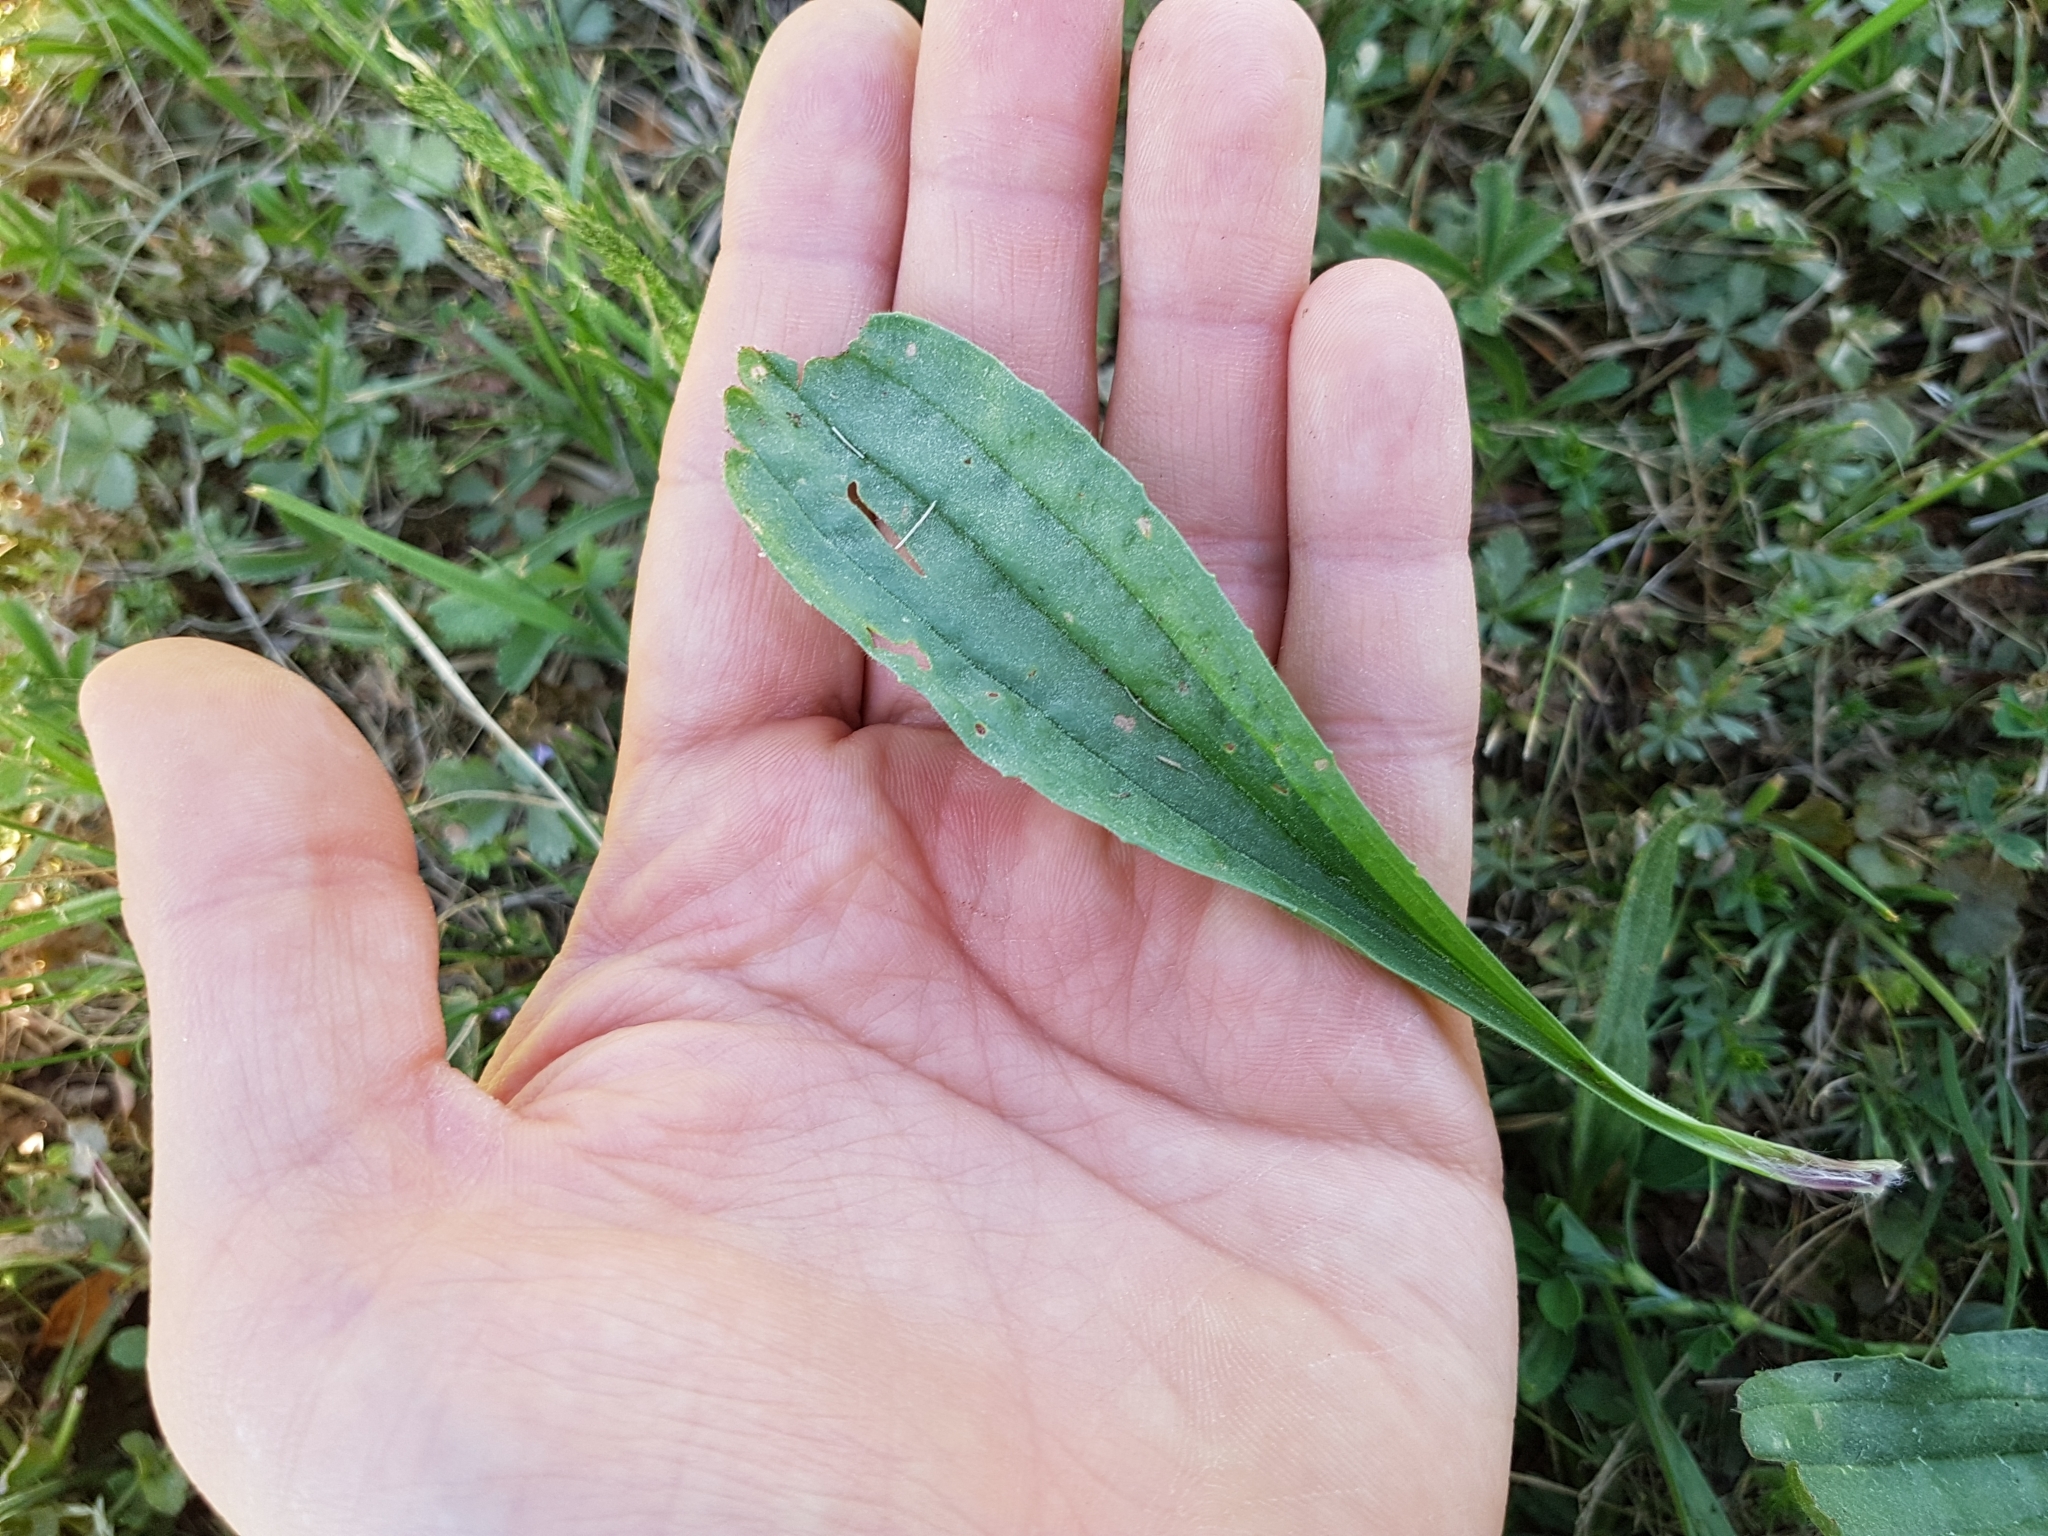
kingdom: Plantae
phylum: Tracheophyta
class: Magnoliopsida
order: Lamiales
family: Plantaginaceae
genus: Plantago
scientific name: Plantago lanceolata
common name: Ribwort plantain
